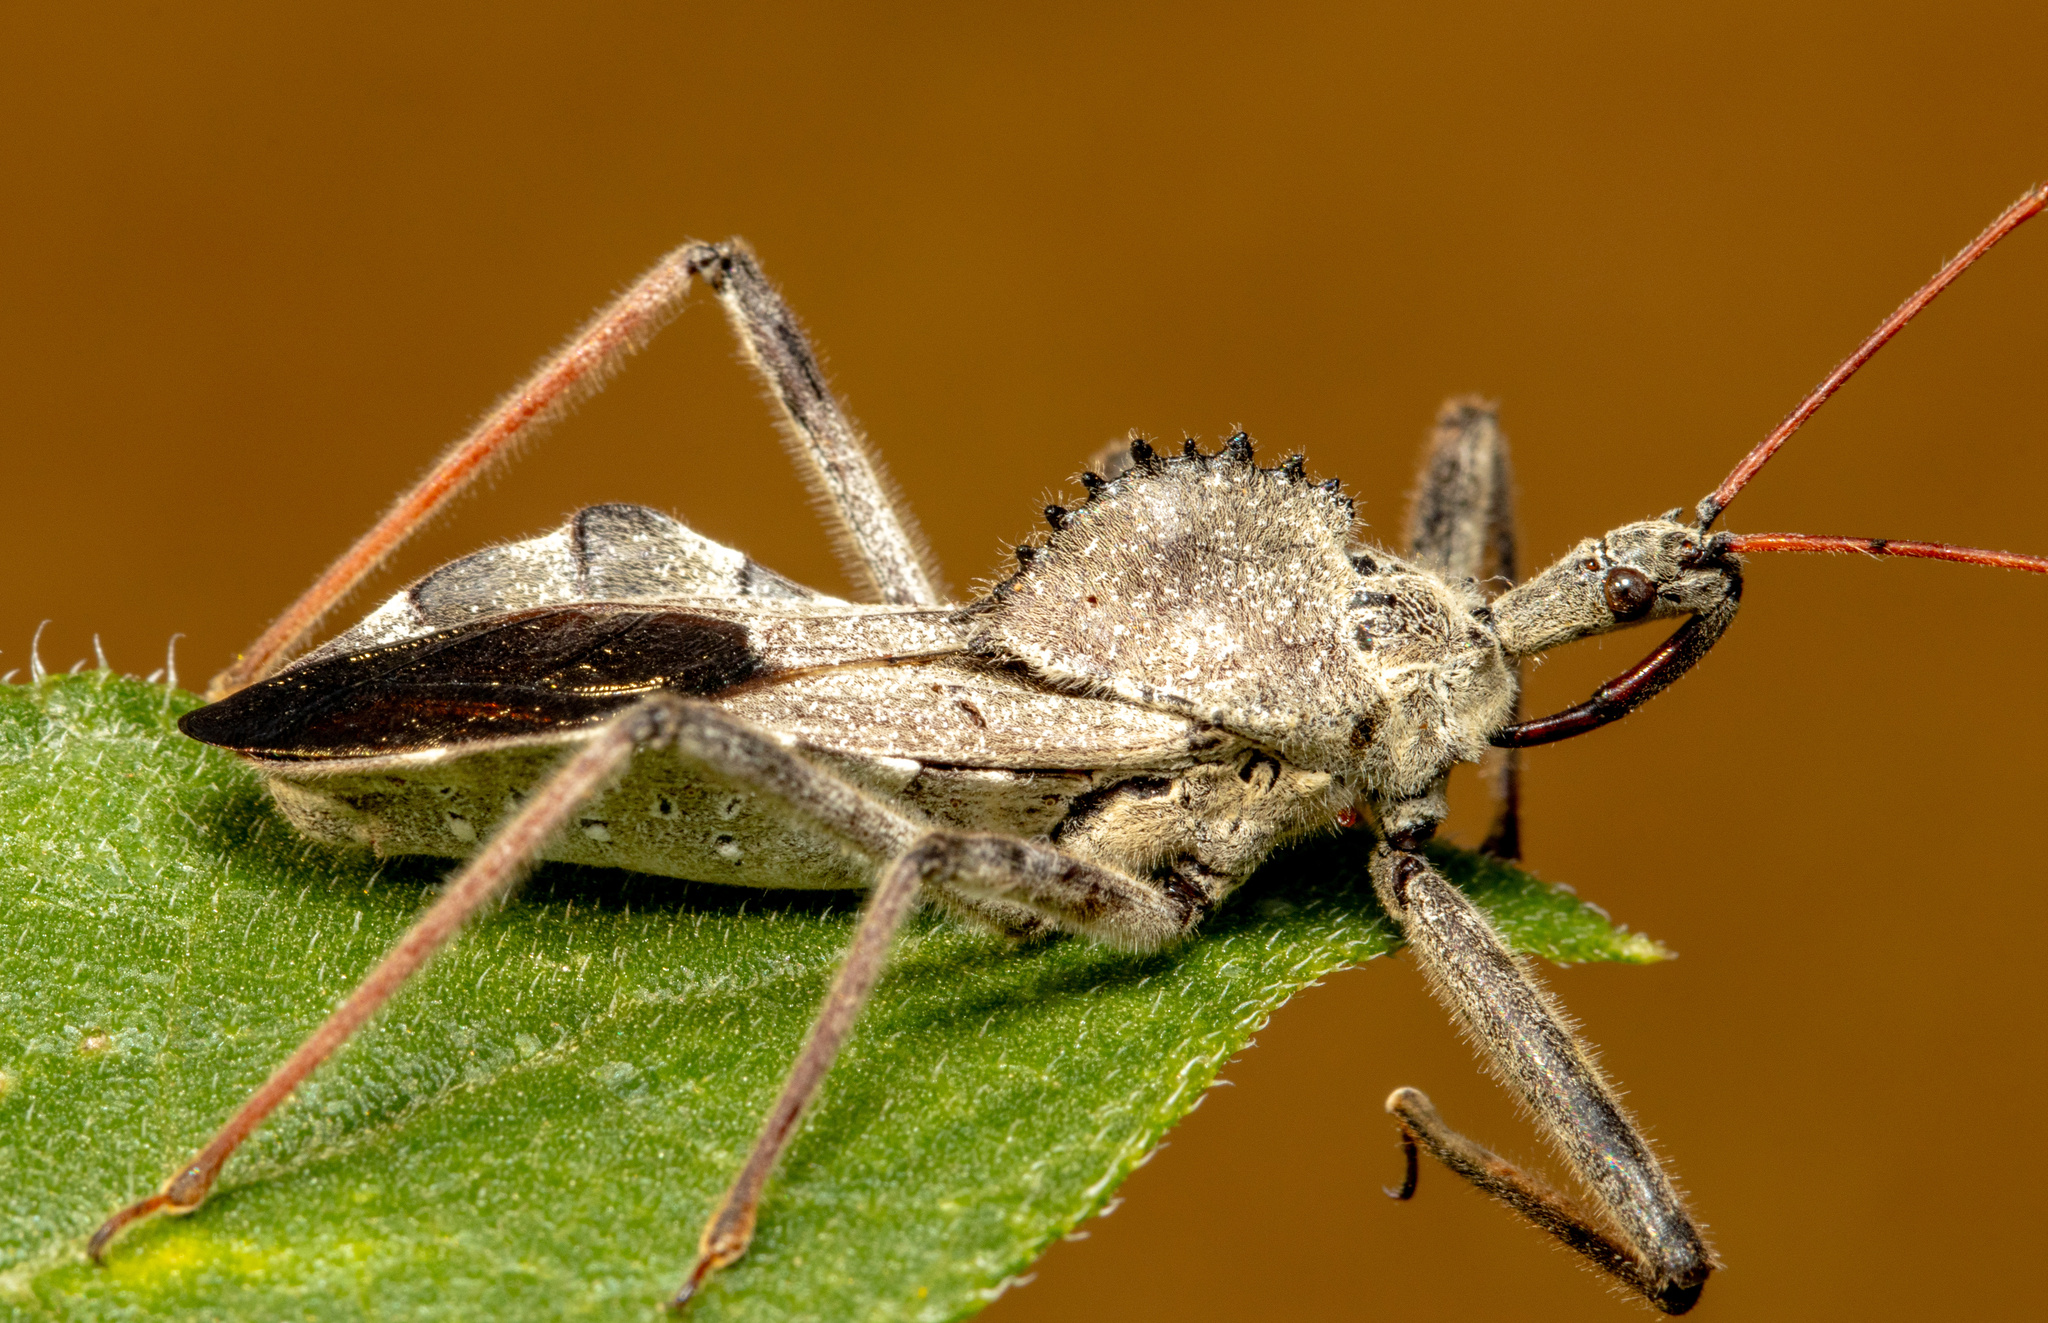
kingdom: Animalia
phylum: Arthropoda
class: Insecta
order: Hemiptera
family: Reduviidae
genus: Arilus
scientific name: Arilus cristatus
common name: North american wheel bug
